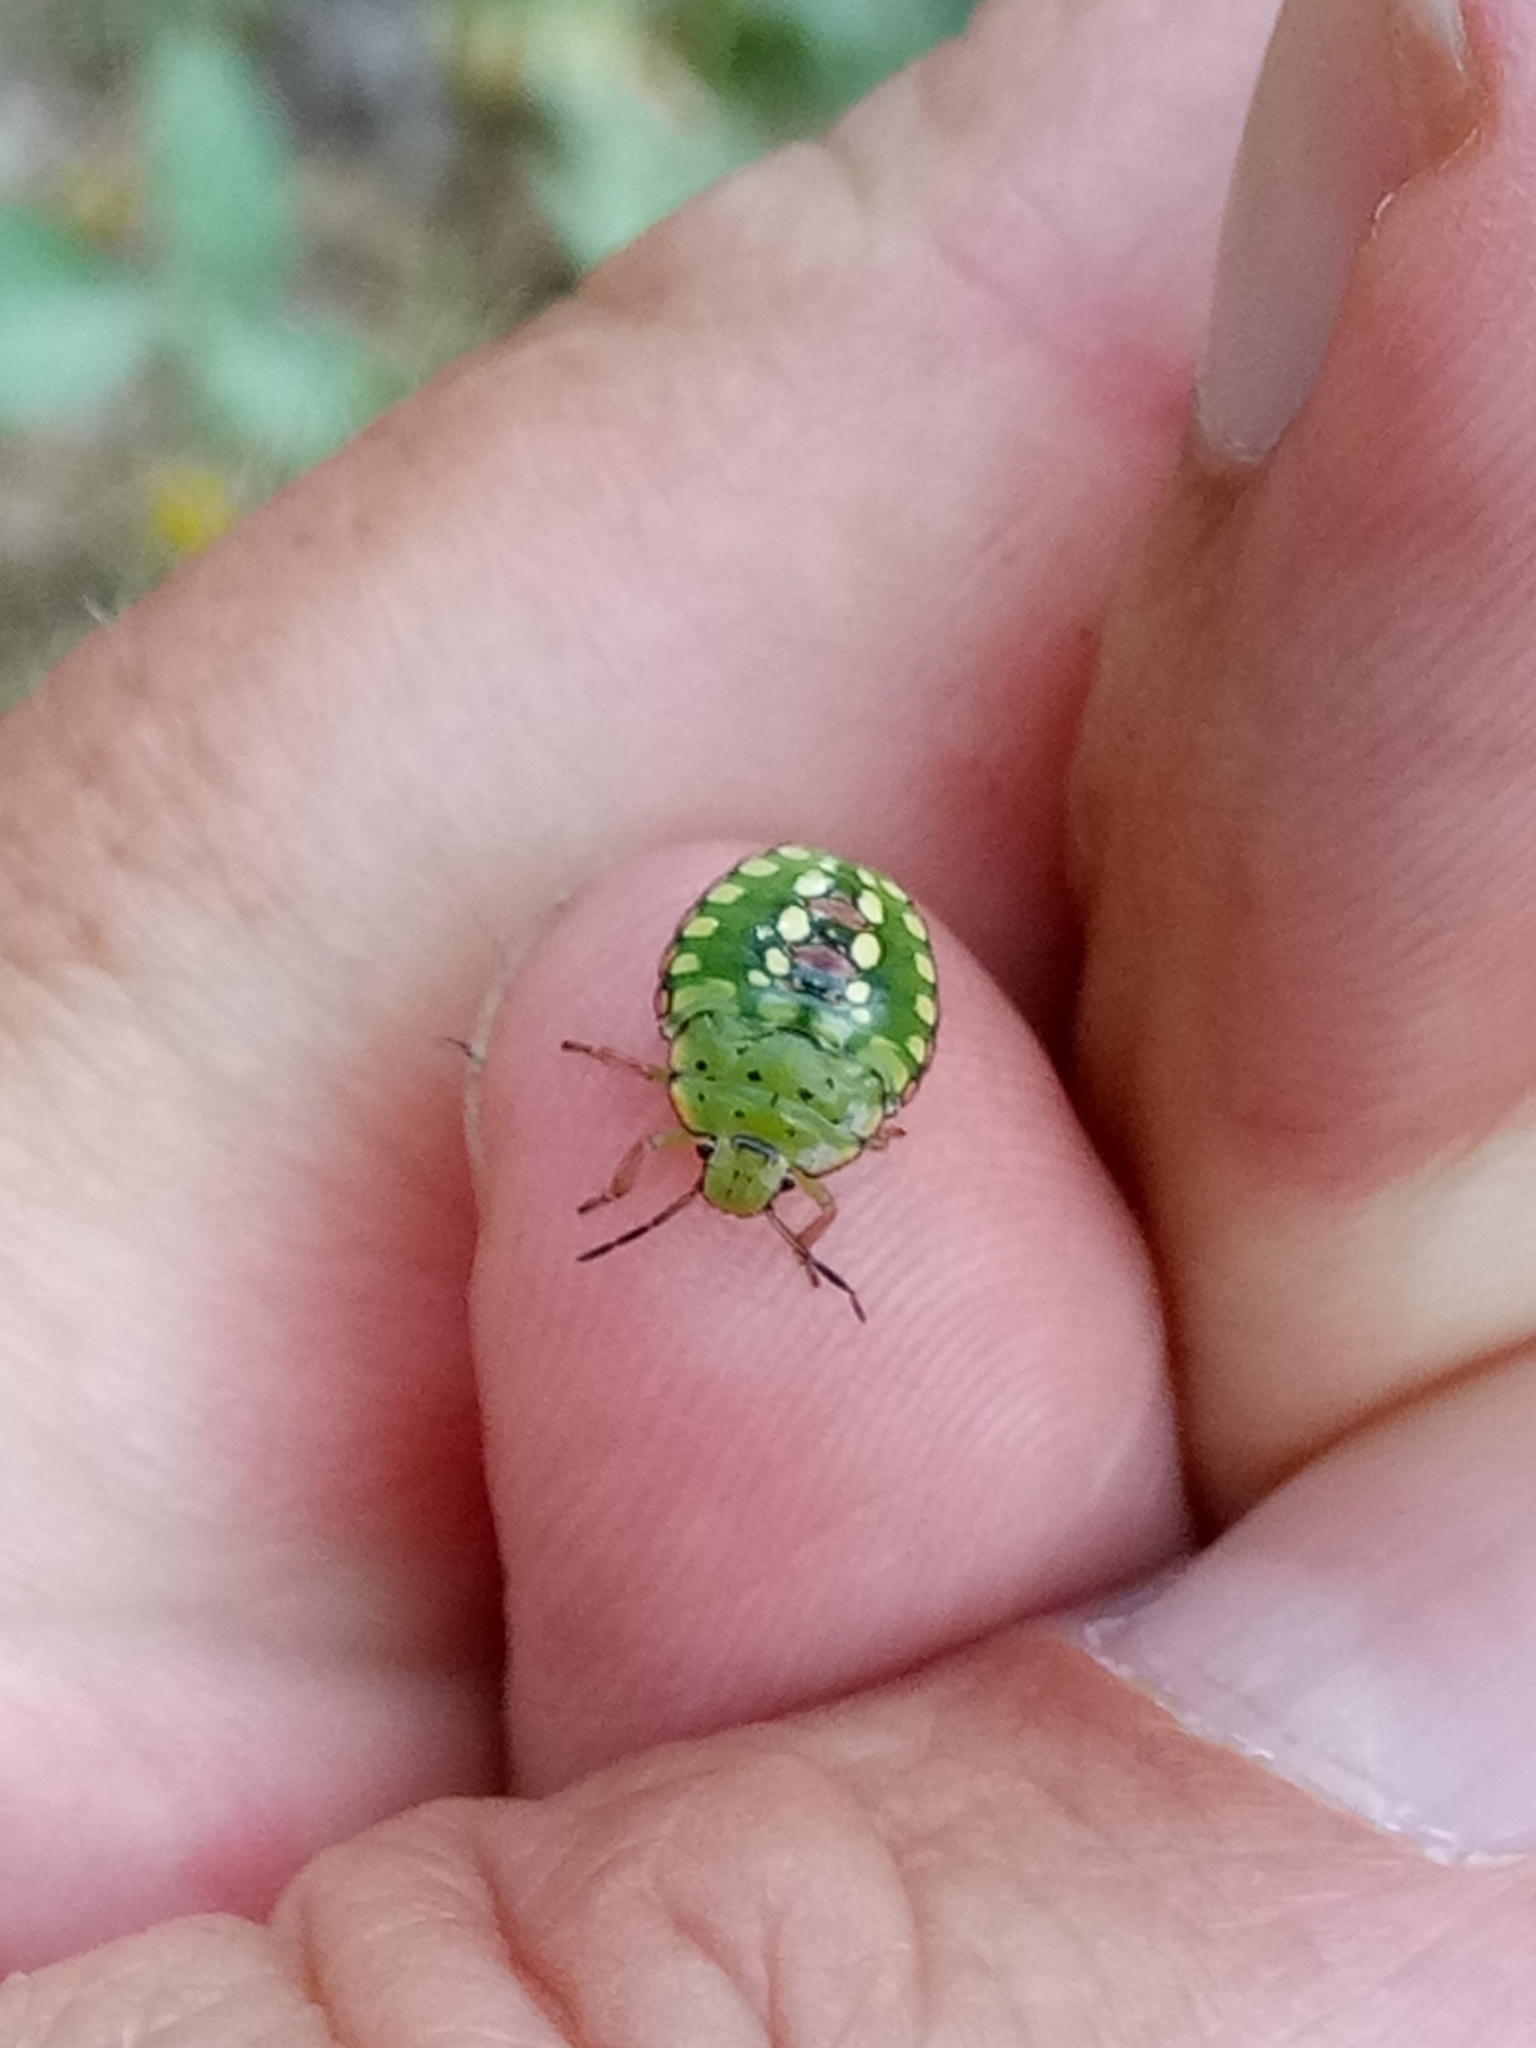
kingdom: Animalia
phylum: Arthropoda
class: Insecta
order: Hemiptera
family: Pentatomidae
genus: Nezara
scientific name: Nezara viridula
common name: Southern green stink bug
